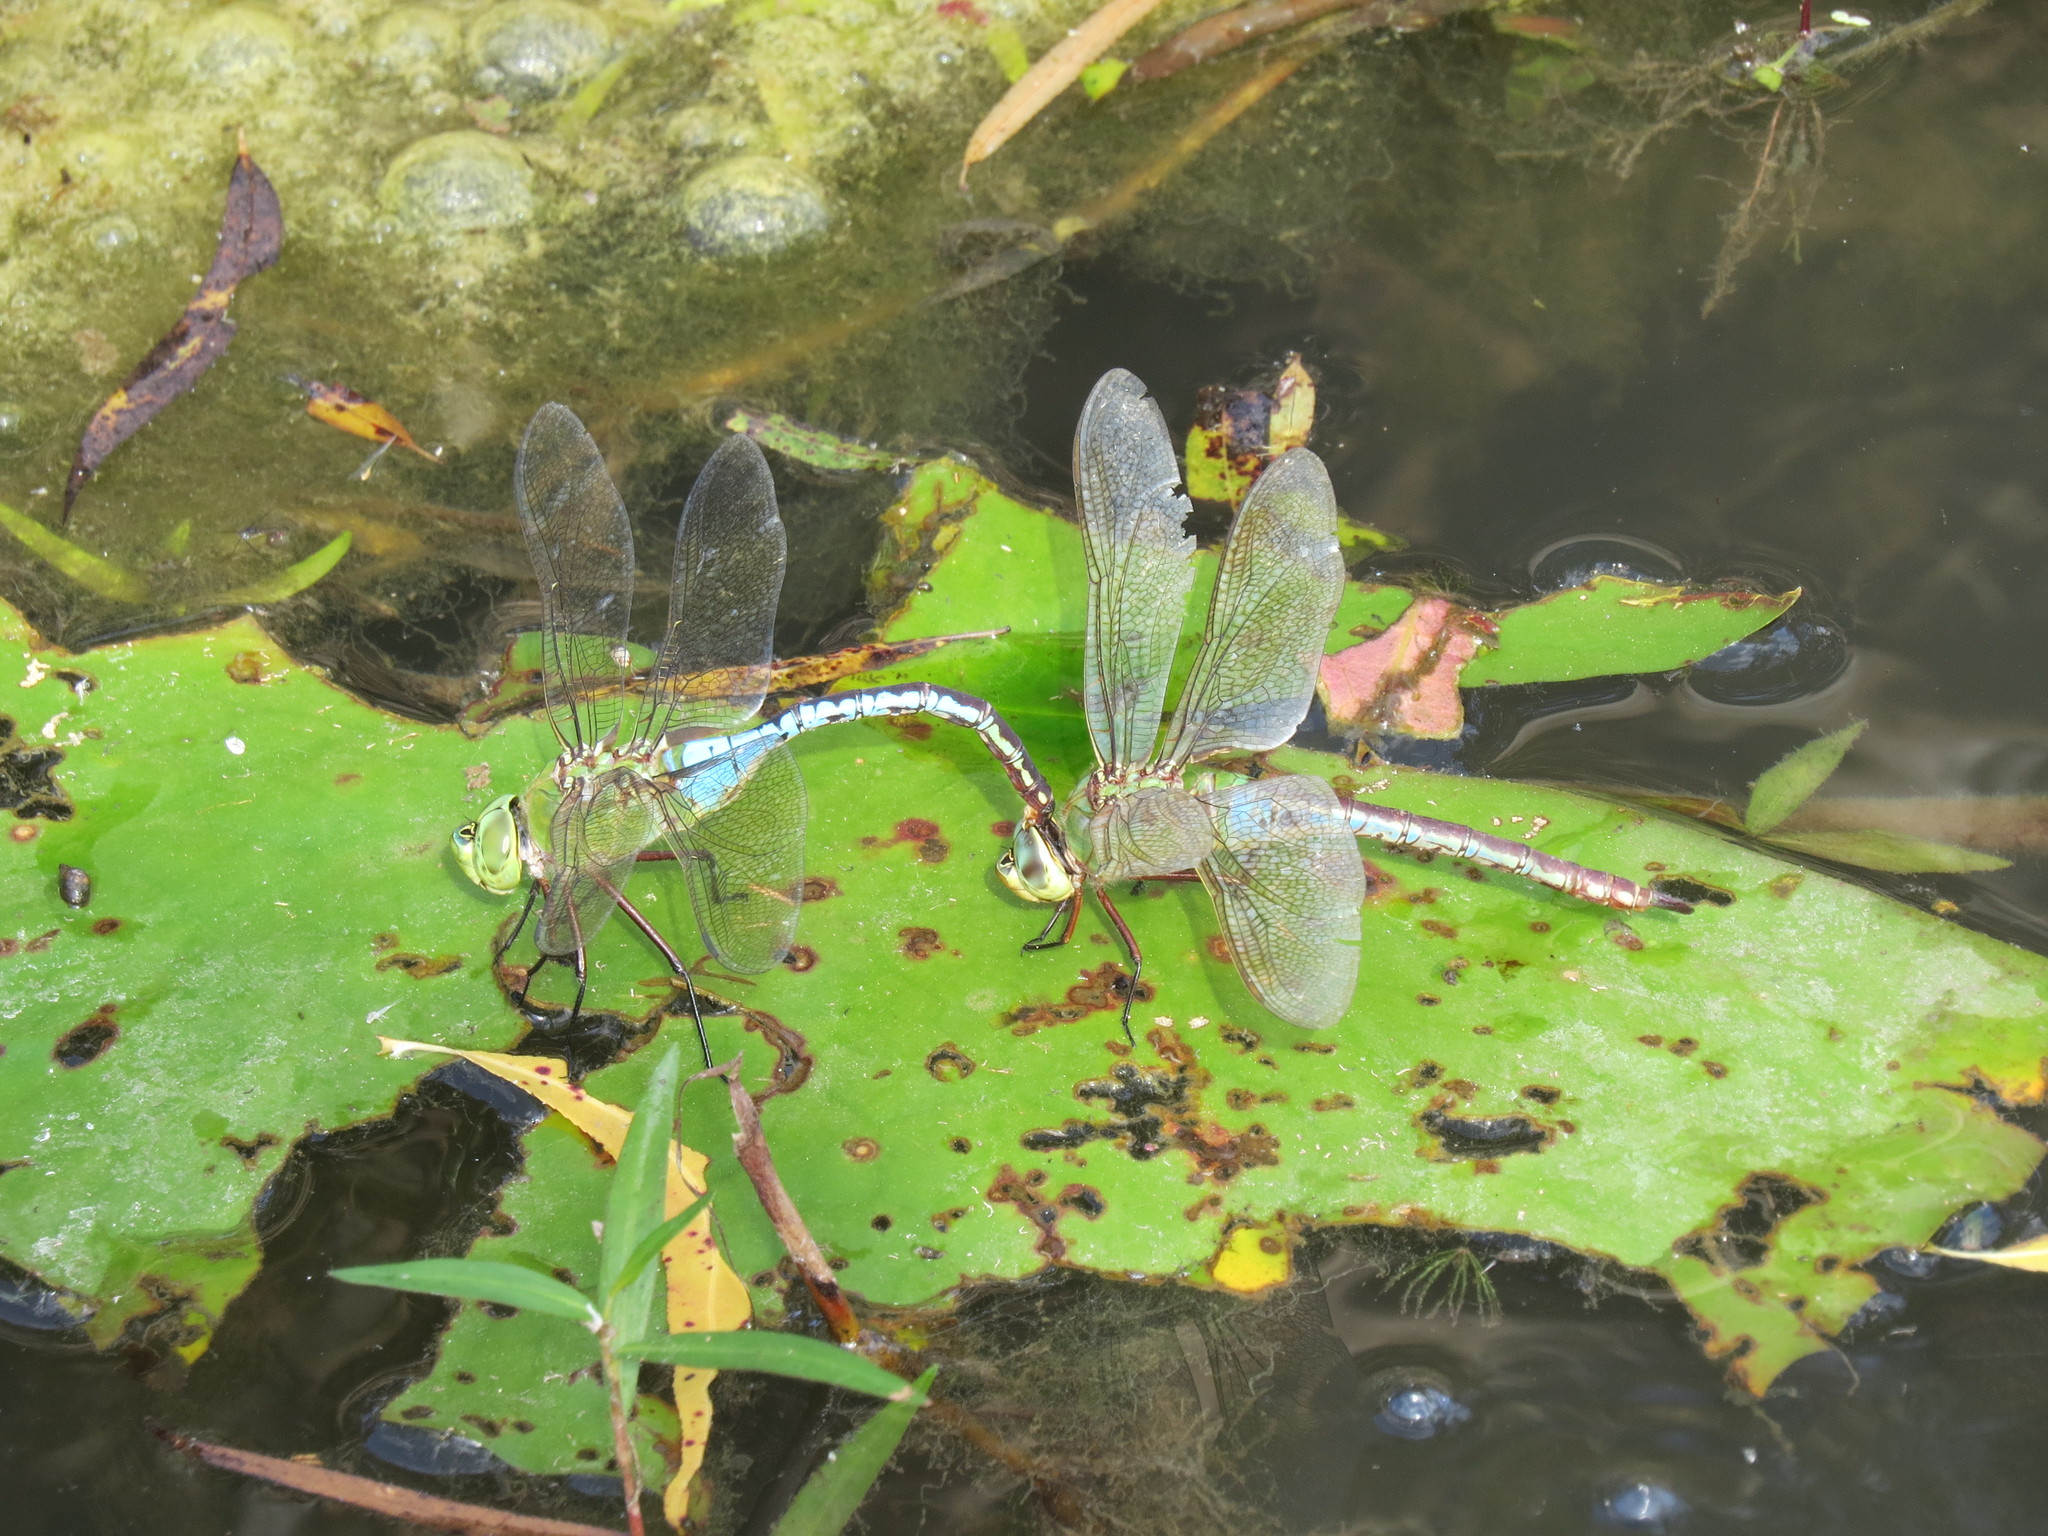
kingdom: Animalia
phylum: Arthropoda
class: Insecta
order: Odonata
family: Aeshnidae
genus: Anax
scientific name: Anax junius
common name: Common green darner
